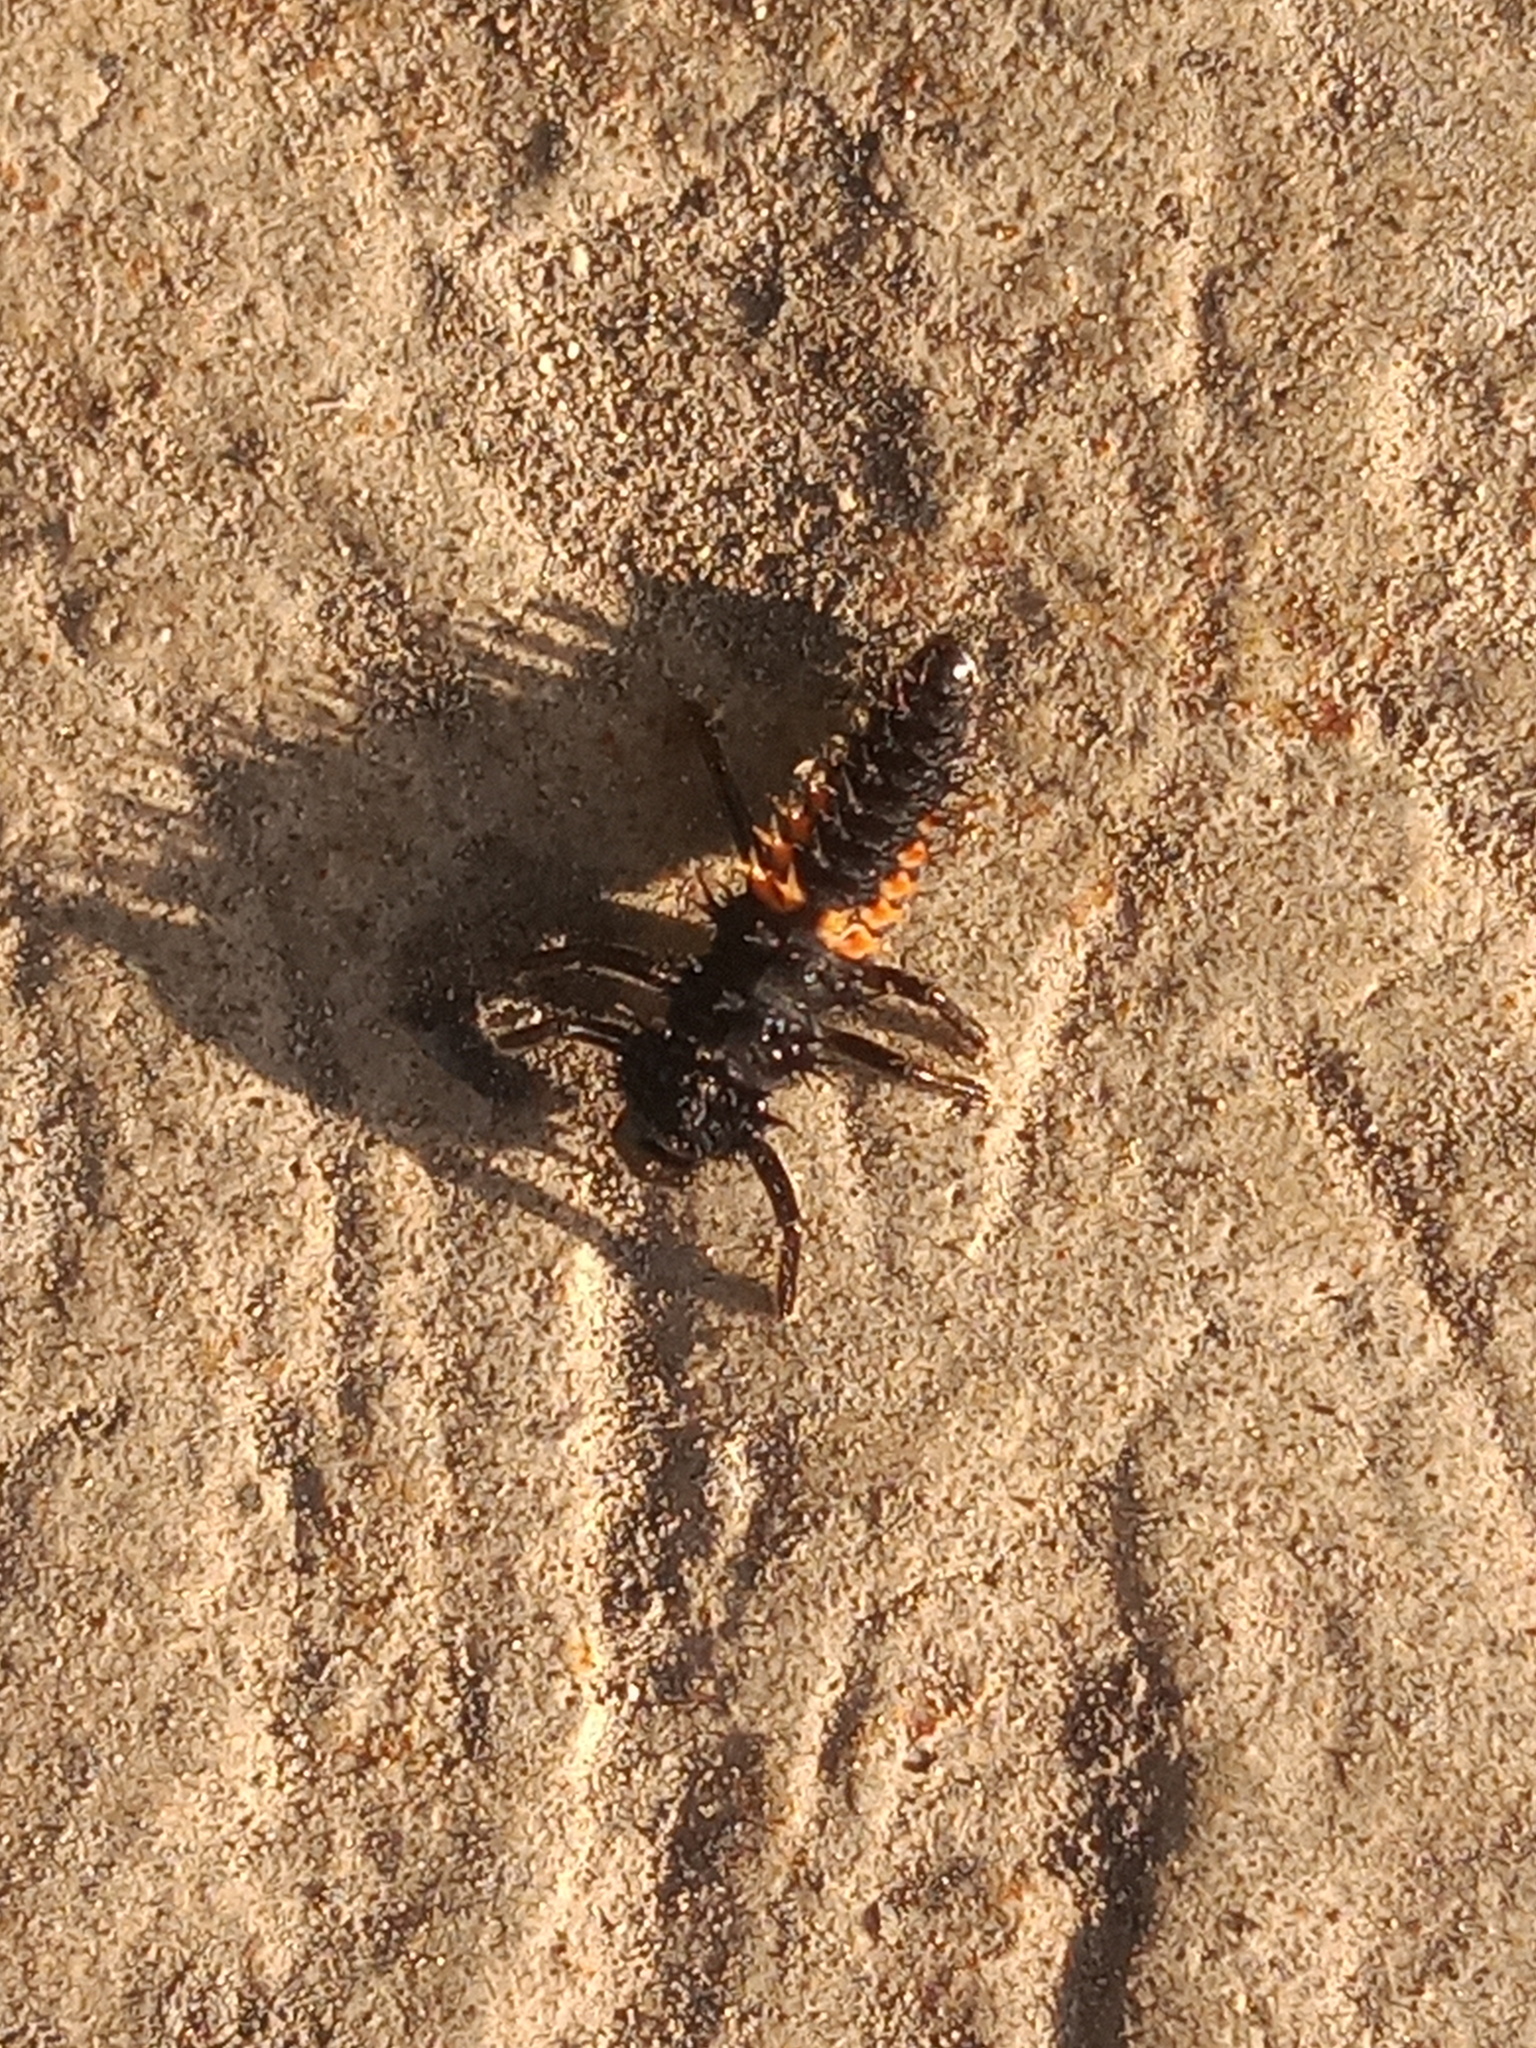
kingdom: Animalia
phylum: Arthropoda
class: Insecta
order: Coleoptera
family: Coccinellidae
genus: Harmonia
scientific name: Harmonia axyridis
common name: Harlequin ladybird
